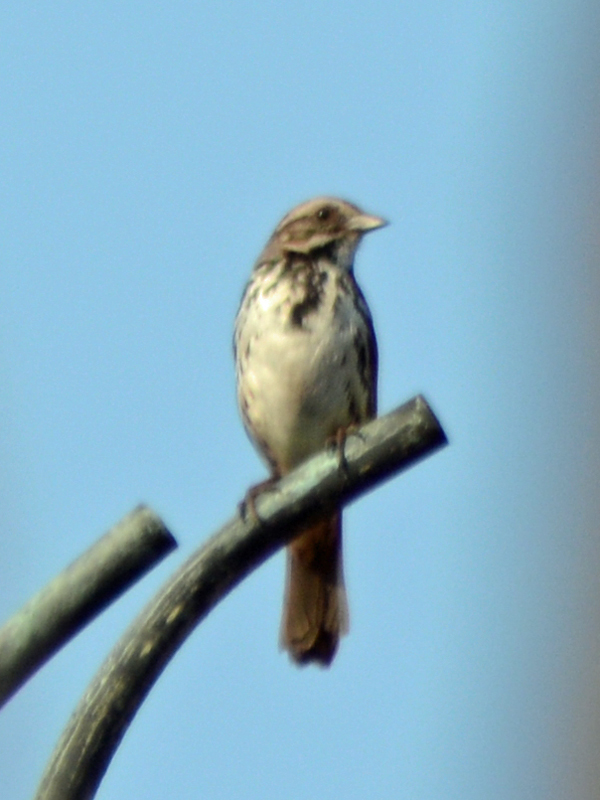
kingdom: Animalia
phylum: Chordata
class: Aves
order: Passeriformes
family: Passerellidae
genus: Melospiza
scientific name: Melospiza melodia
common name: Song sparrow
